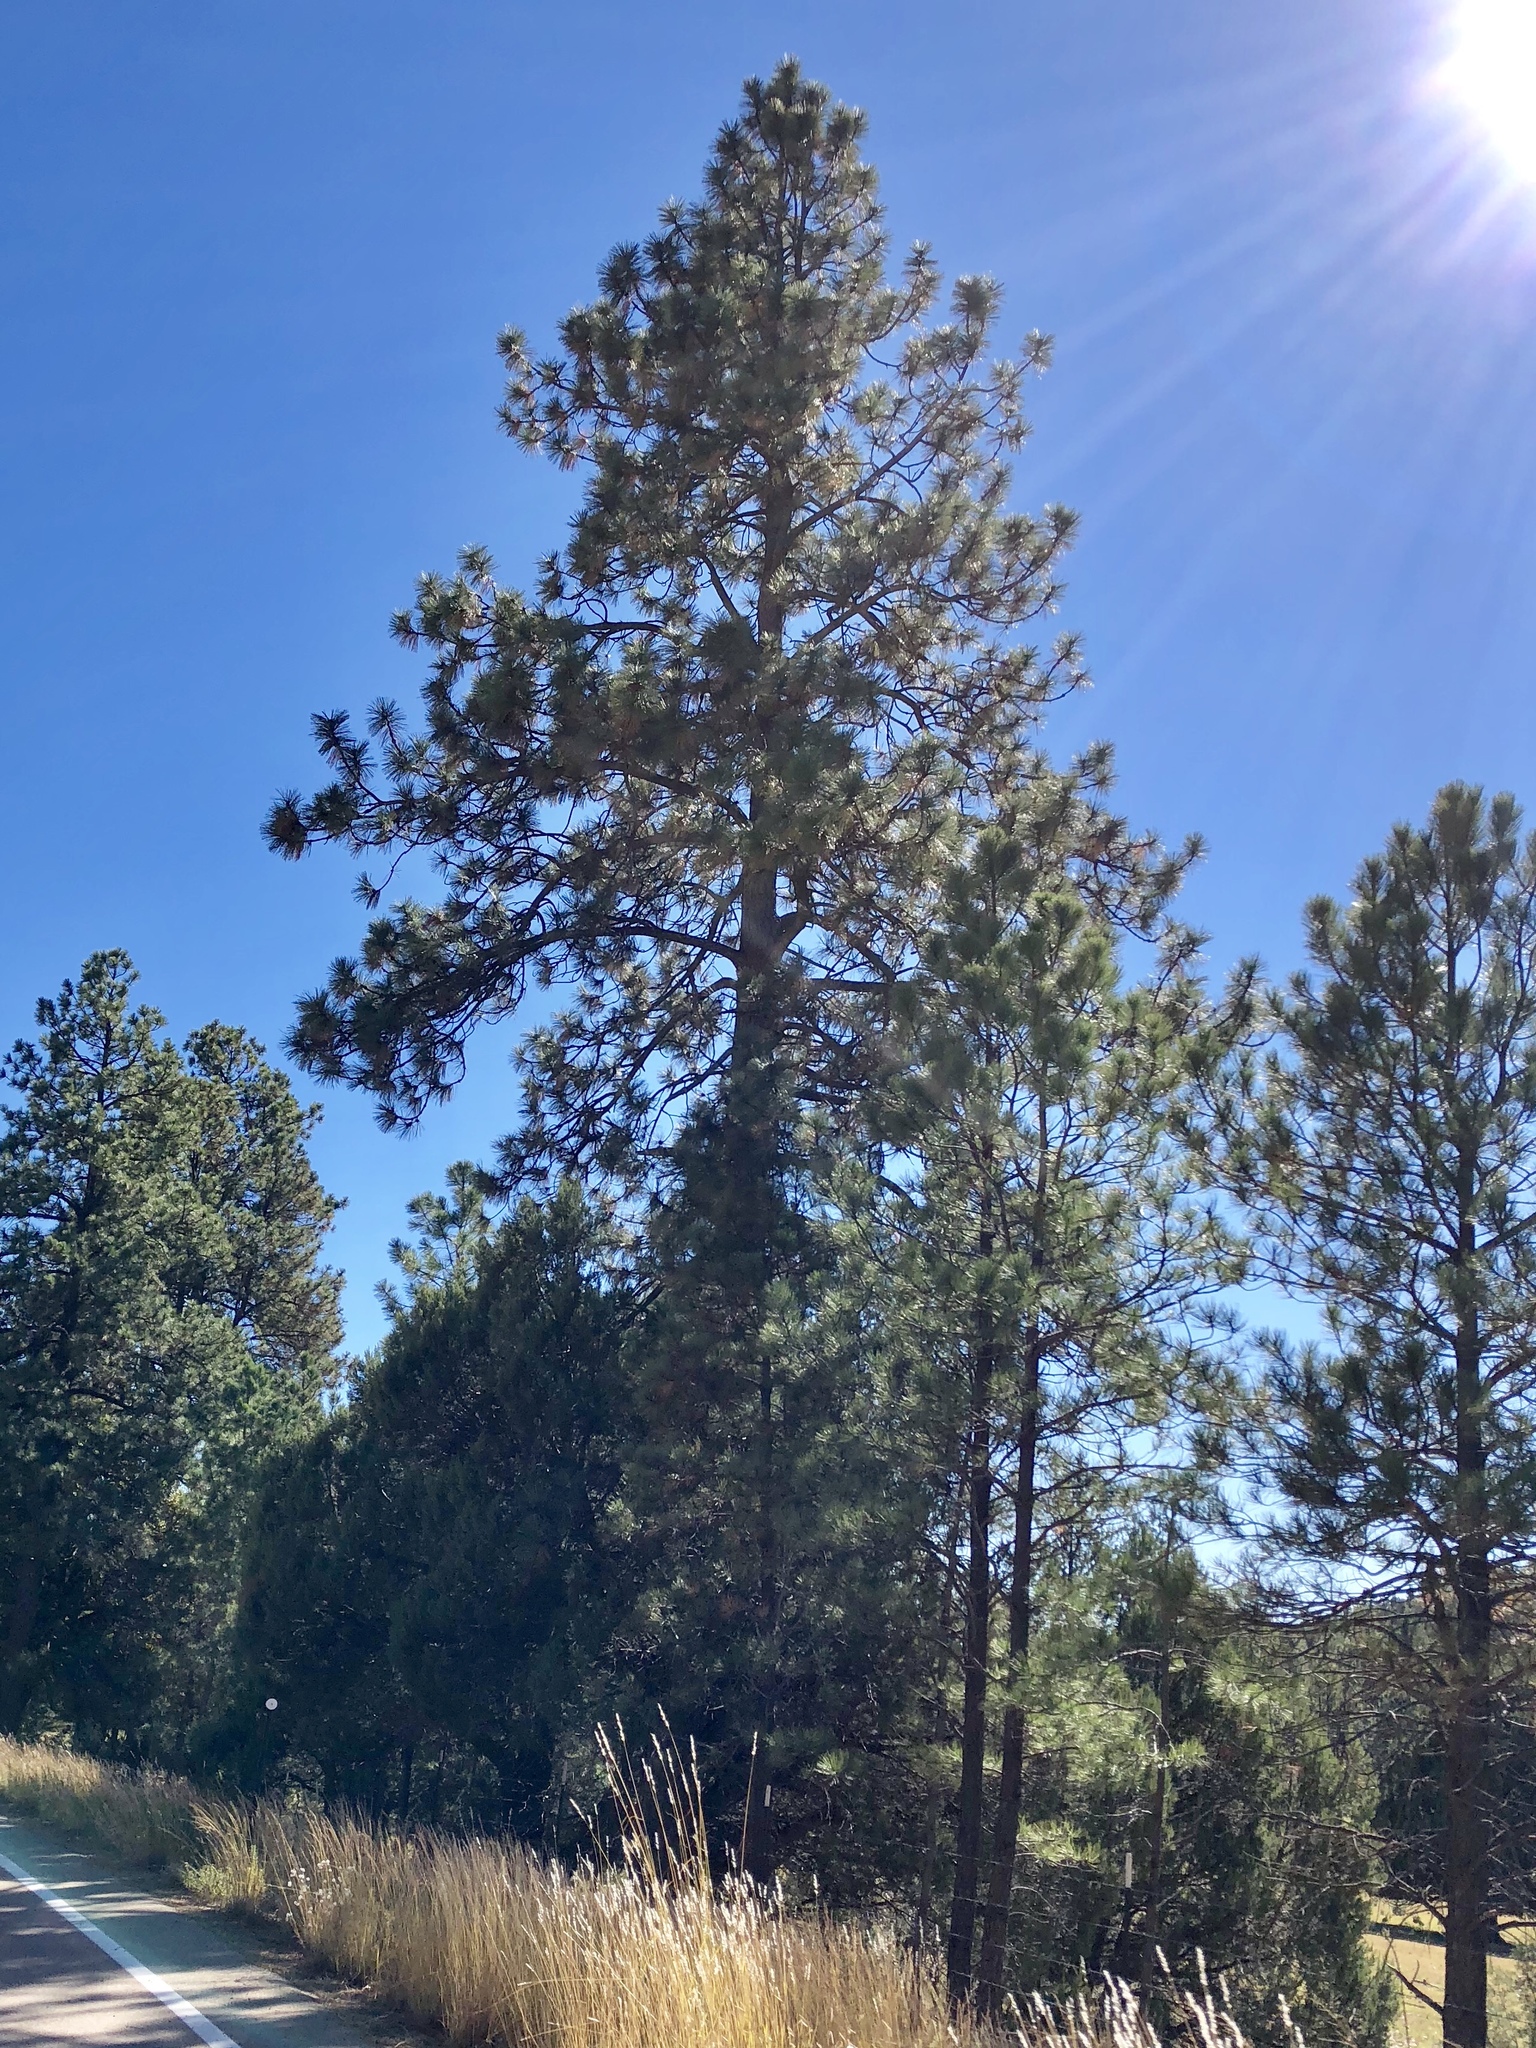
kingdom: Plantae
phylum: Tracheophyta
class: Pinopsida
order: Pinales
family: Pinaceae
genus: Pinus
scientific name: Pinus ponderosa
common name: Western yellow-pine
